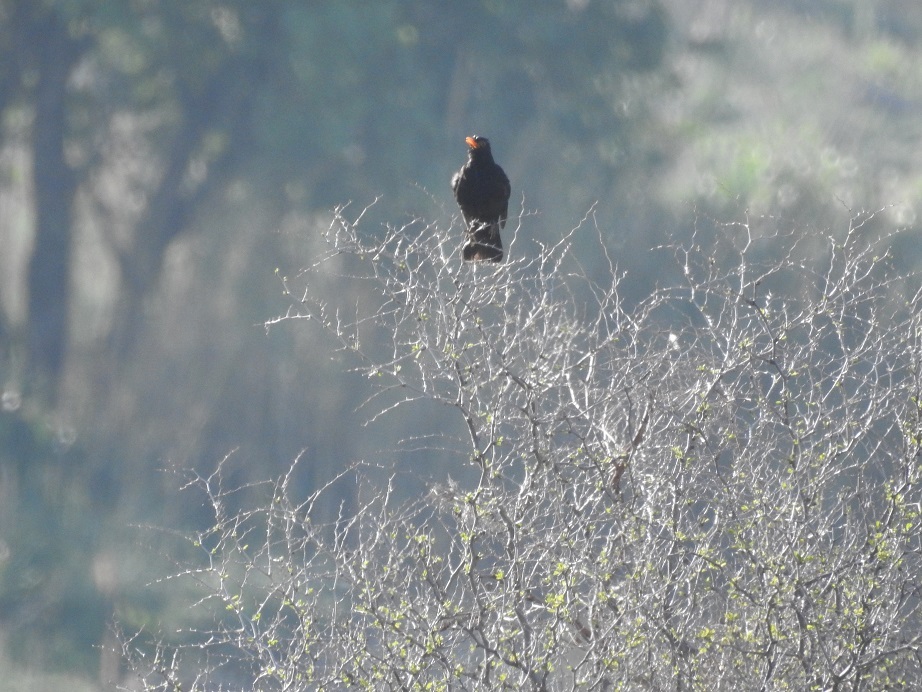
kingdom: Animalia
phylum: Chordata
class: Aves
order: Passeriformes
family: Turdidae
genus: Turdus
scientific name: Turdus merula
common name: Common blackbird
